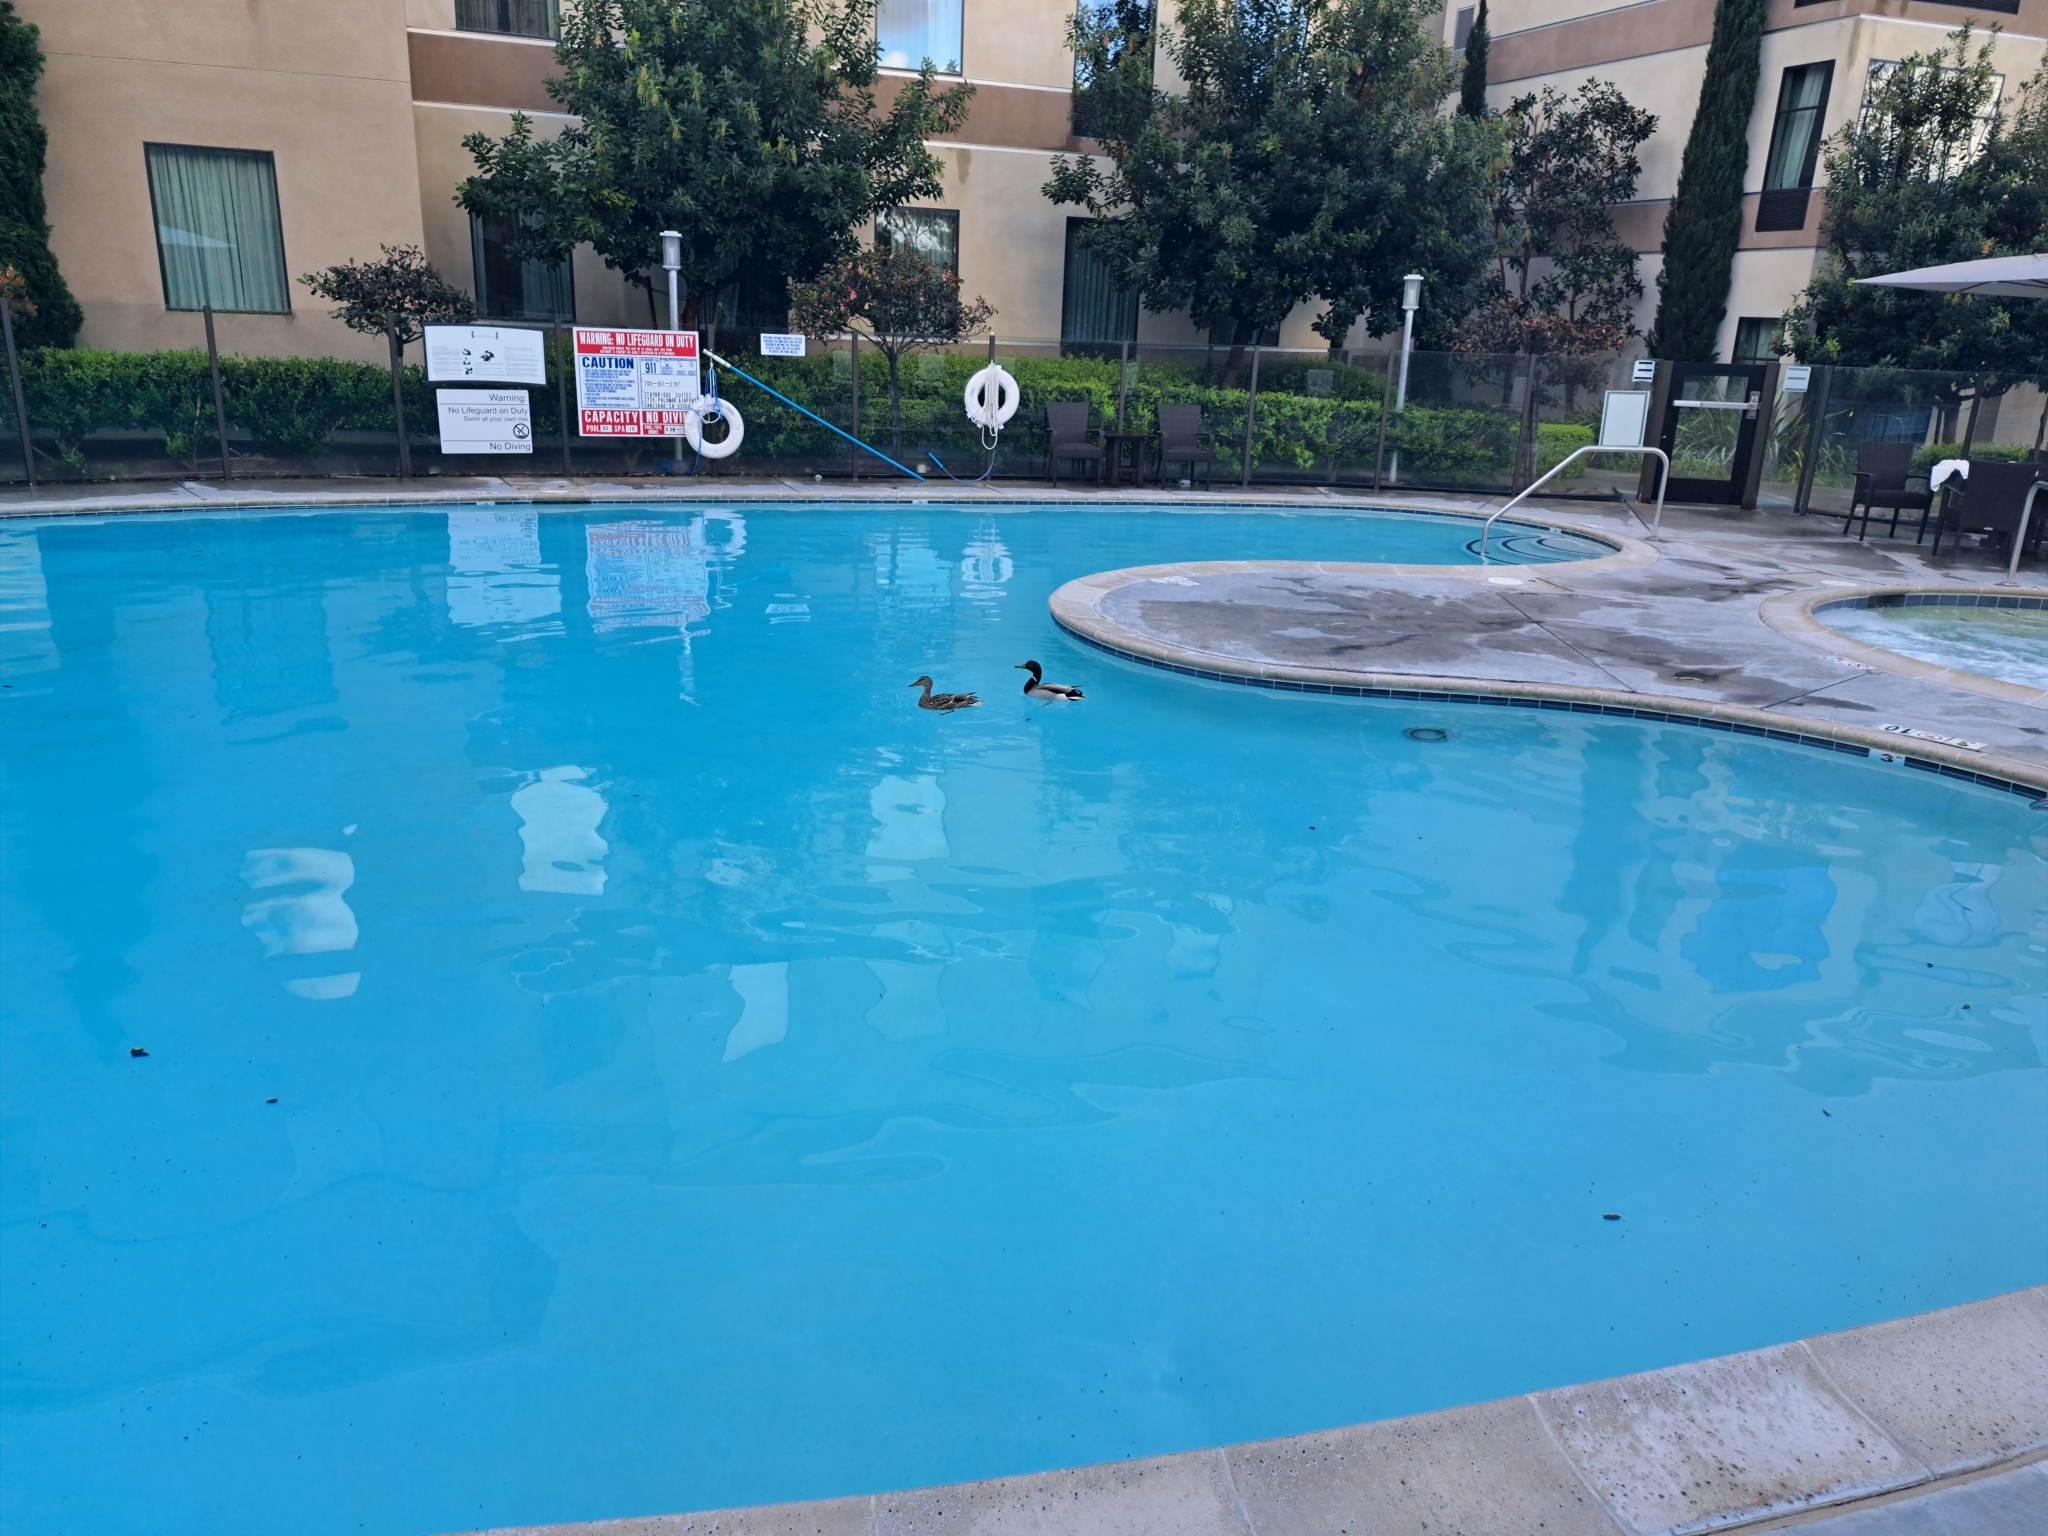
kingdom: Animalia
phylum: Chordata
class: Aves
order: Anseriformes
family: Anatidae
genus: Anas
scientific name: Anas platyrhynchos
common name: Mallard
